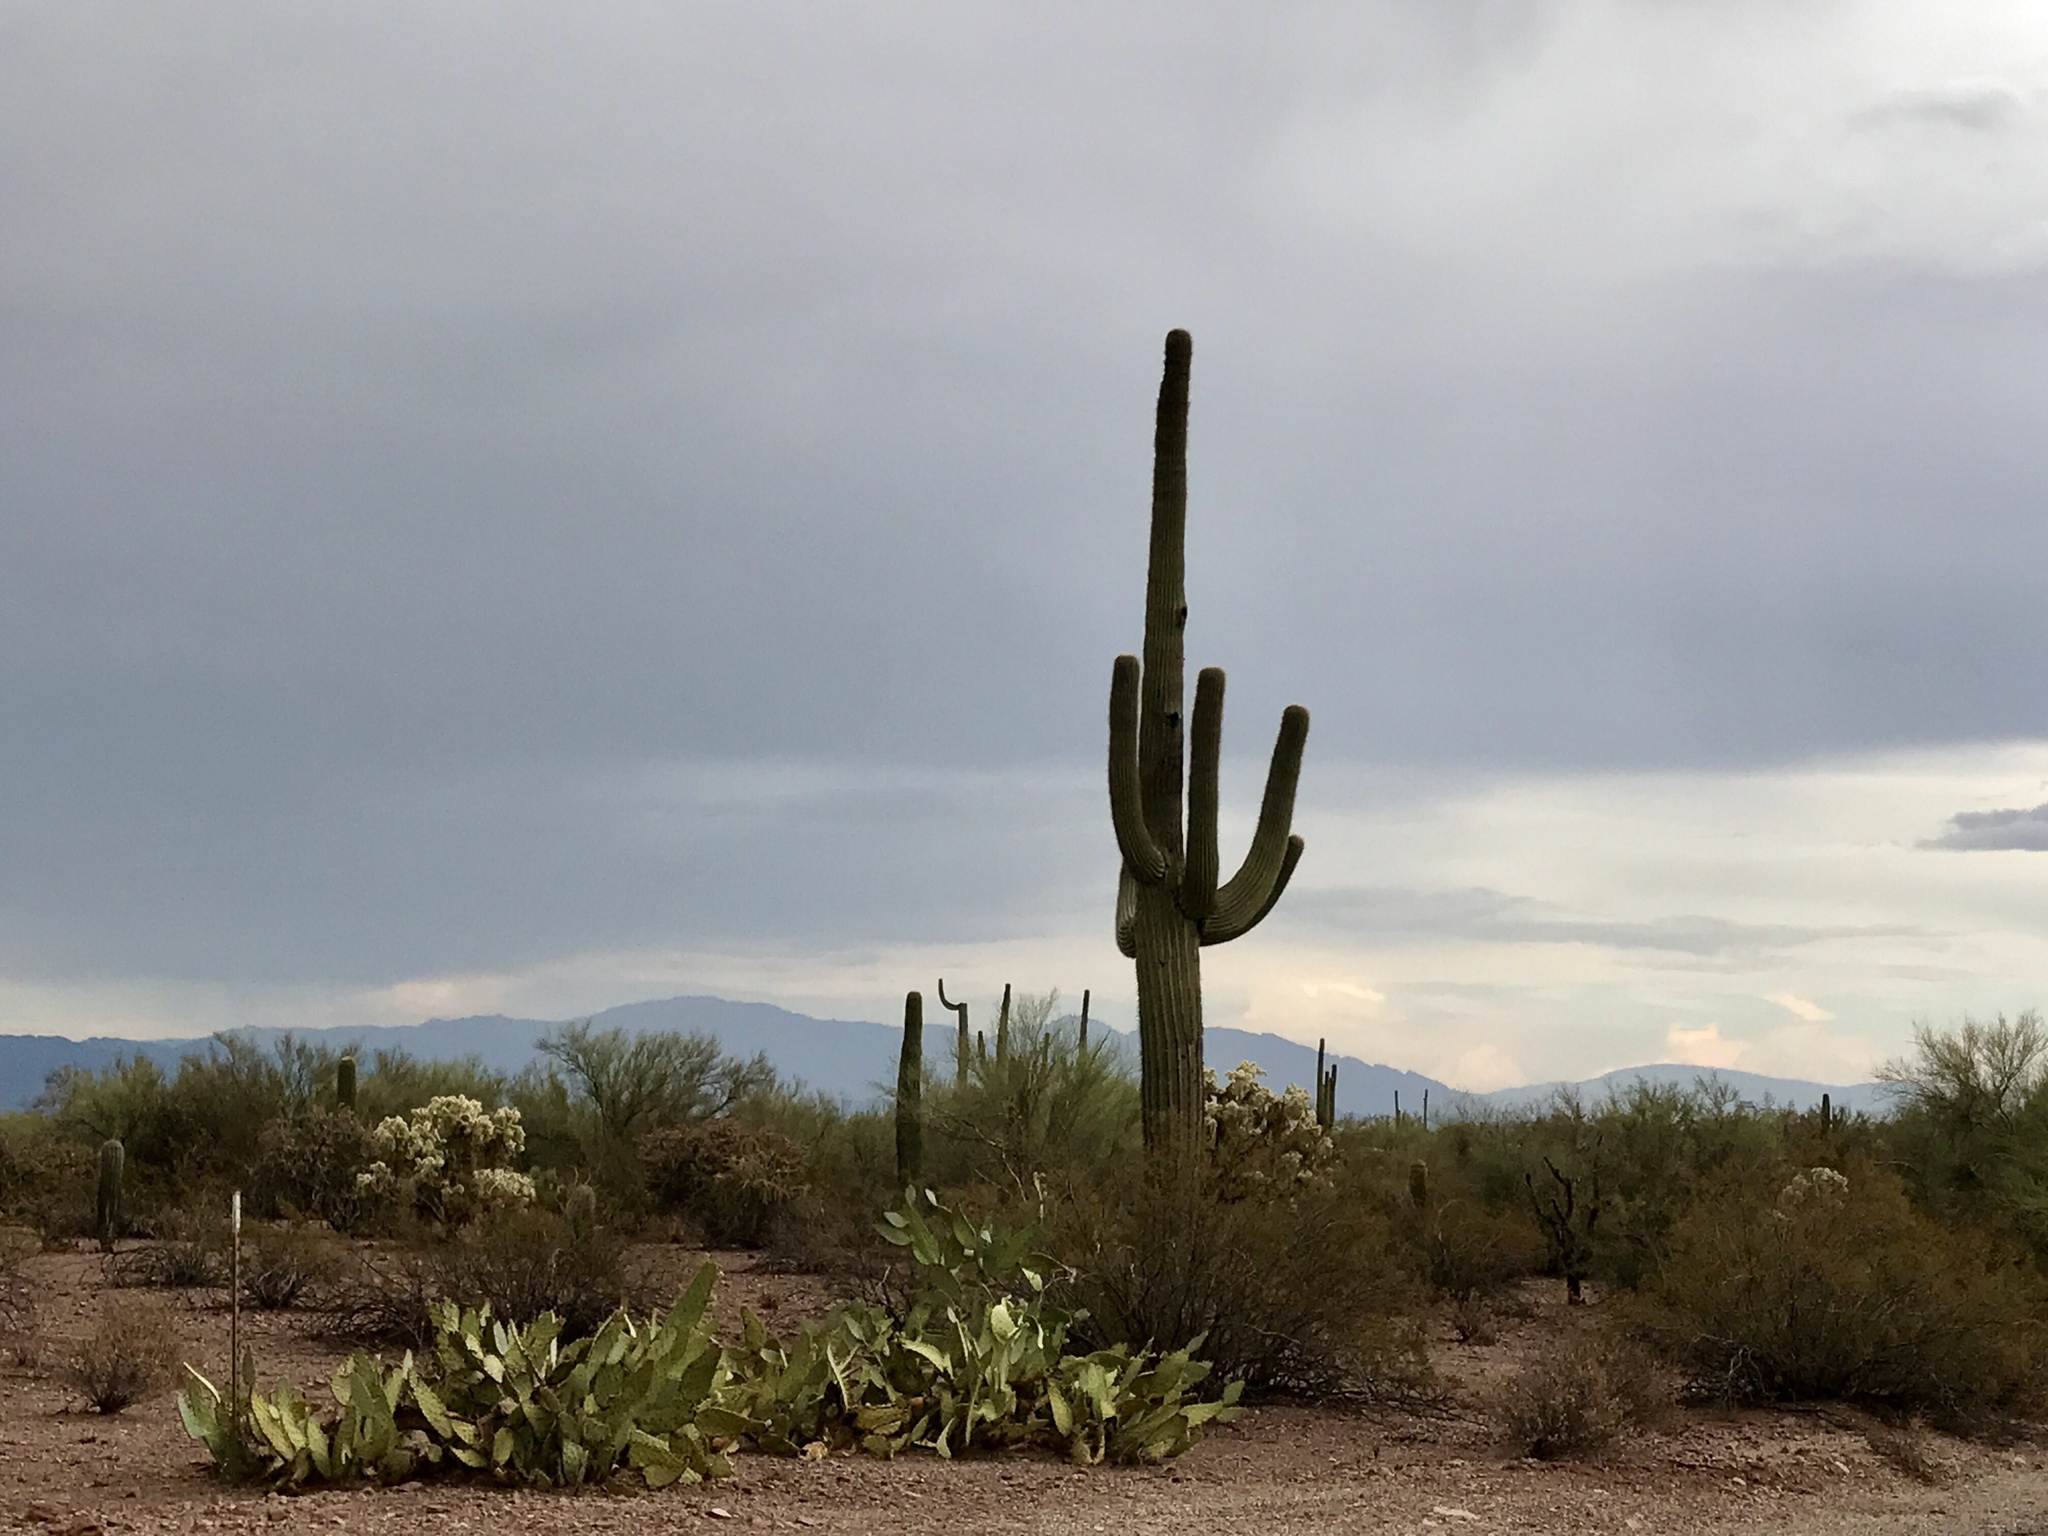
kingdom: Plantae
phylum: Tracheophyta
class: Magnoliopsida
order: Caryophyllales
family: Cactaceae
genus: Carnegiea
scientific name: Carnegiea gigantea
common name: Saguaro
